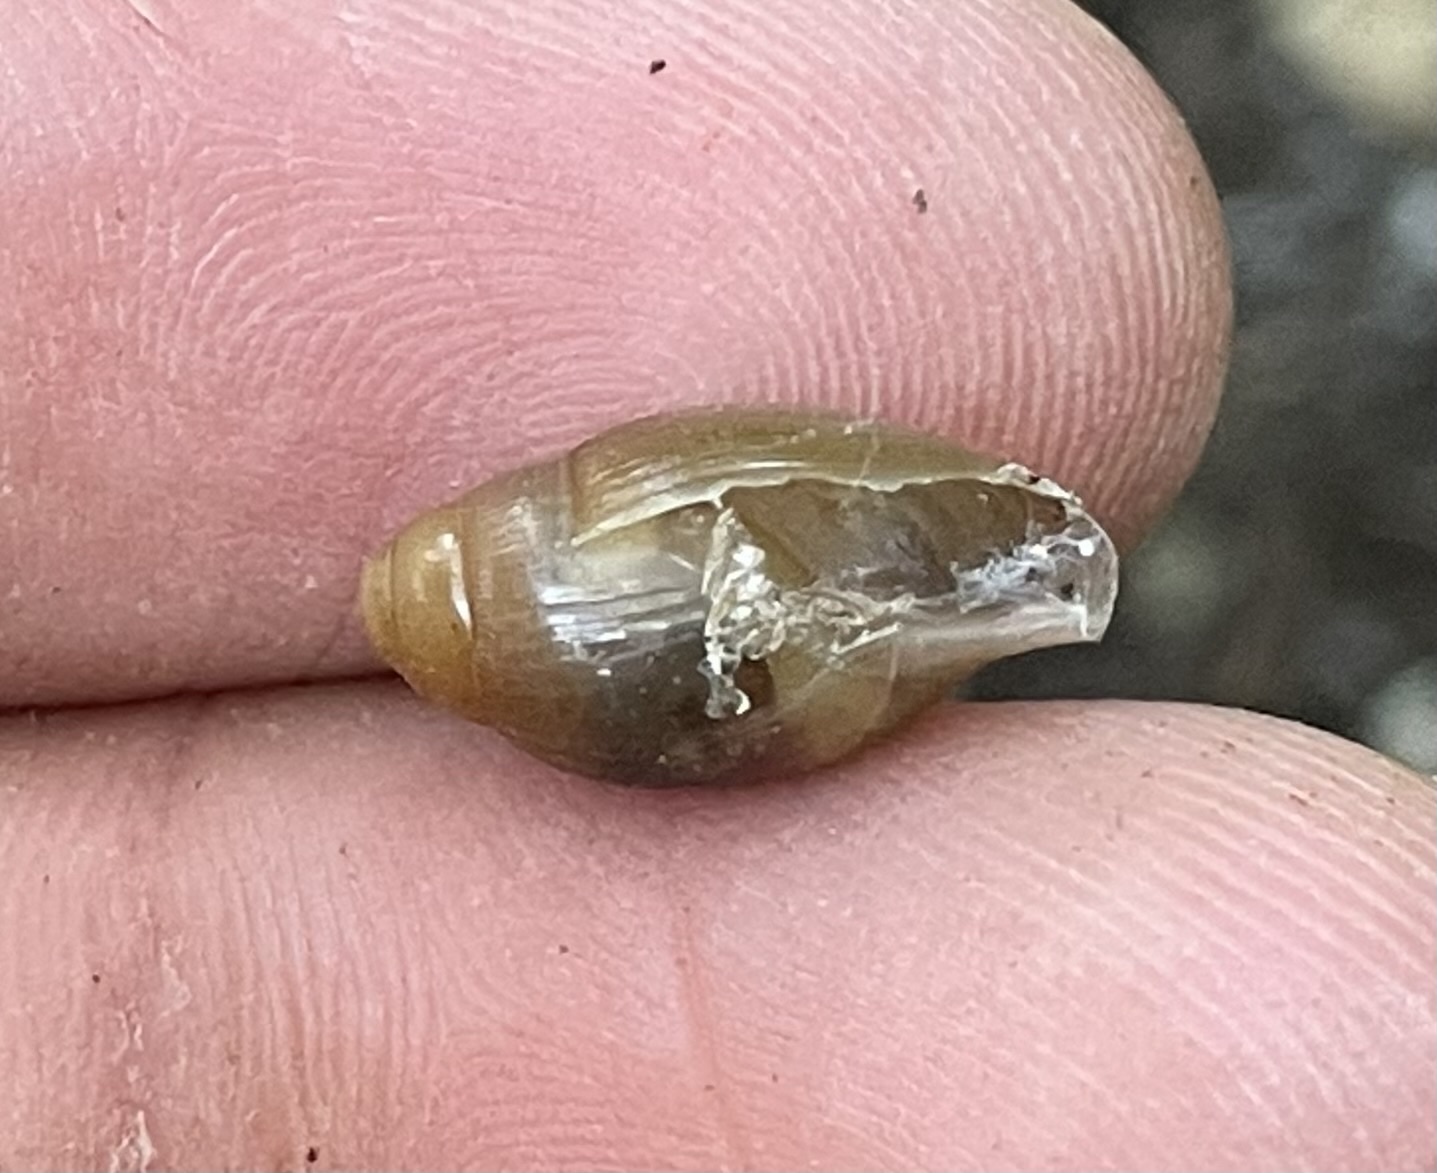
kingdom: Animalia
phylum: Mollusca
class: Gastropoda
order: Stylommatophora
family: Spiraxidae
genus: Euglandina
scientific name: Euglandina rosea
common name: Rosy wolfsnail
